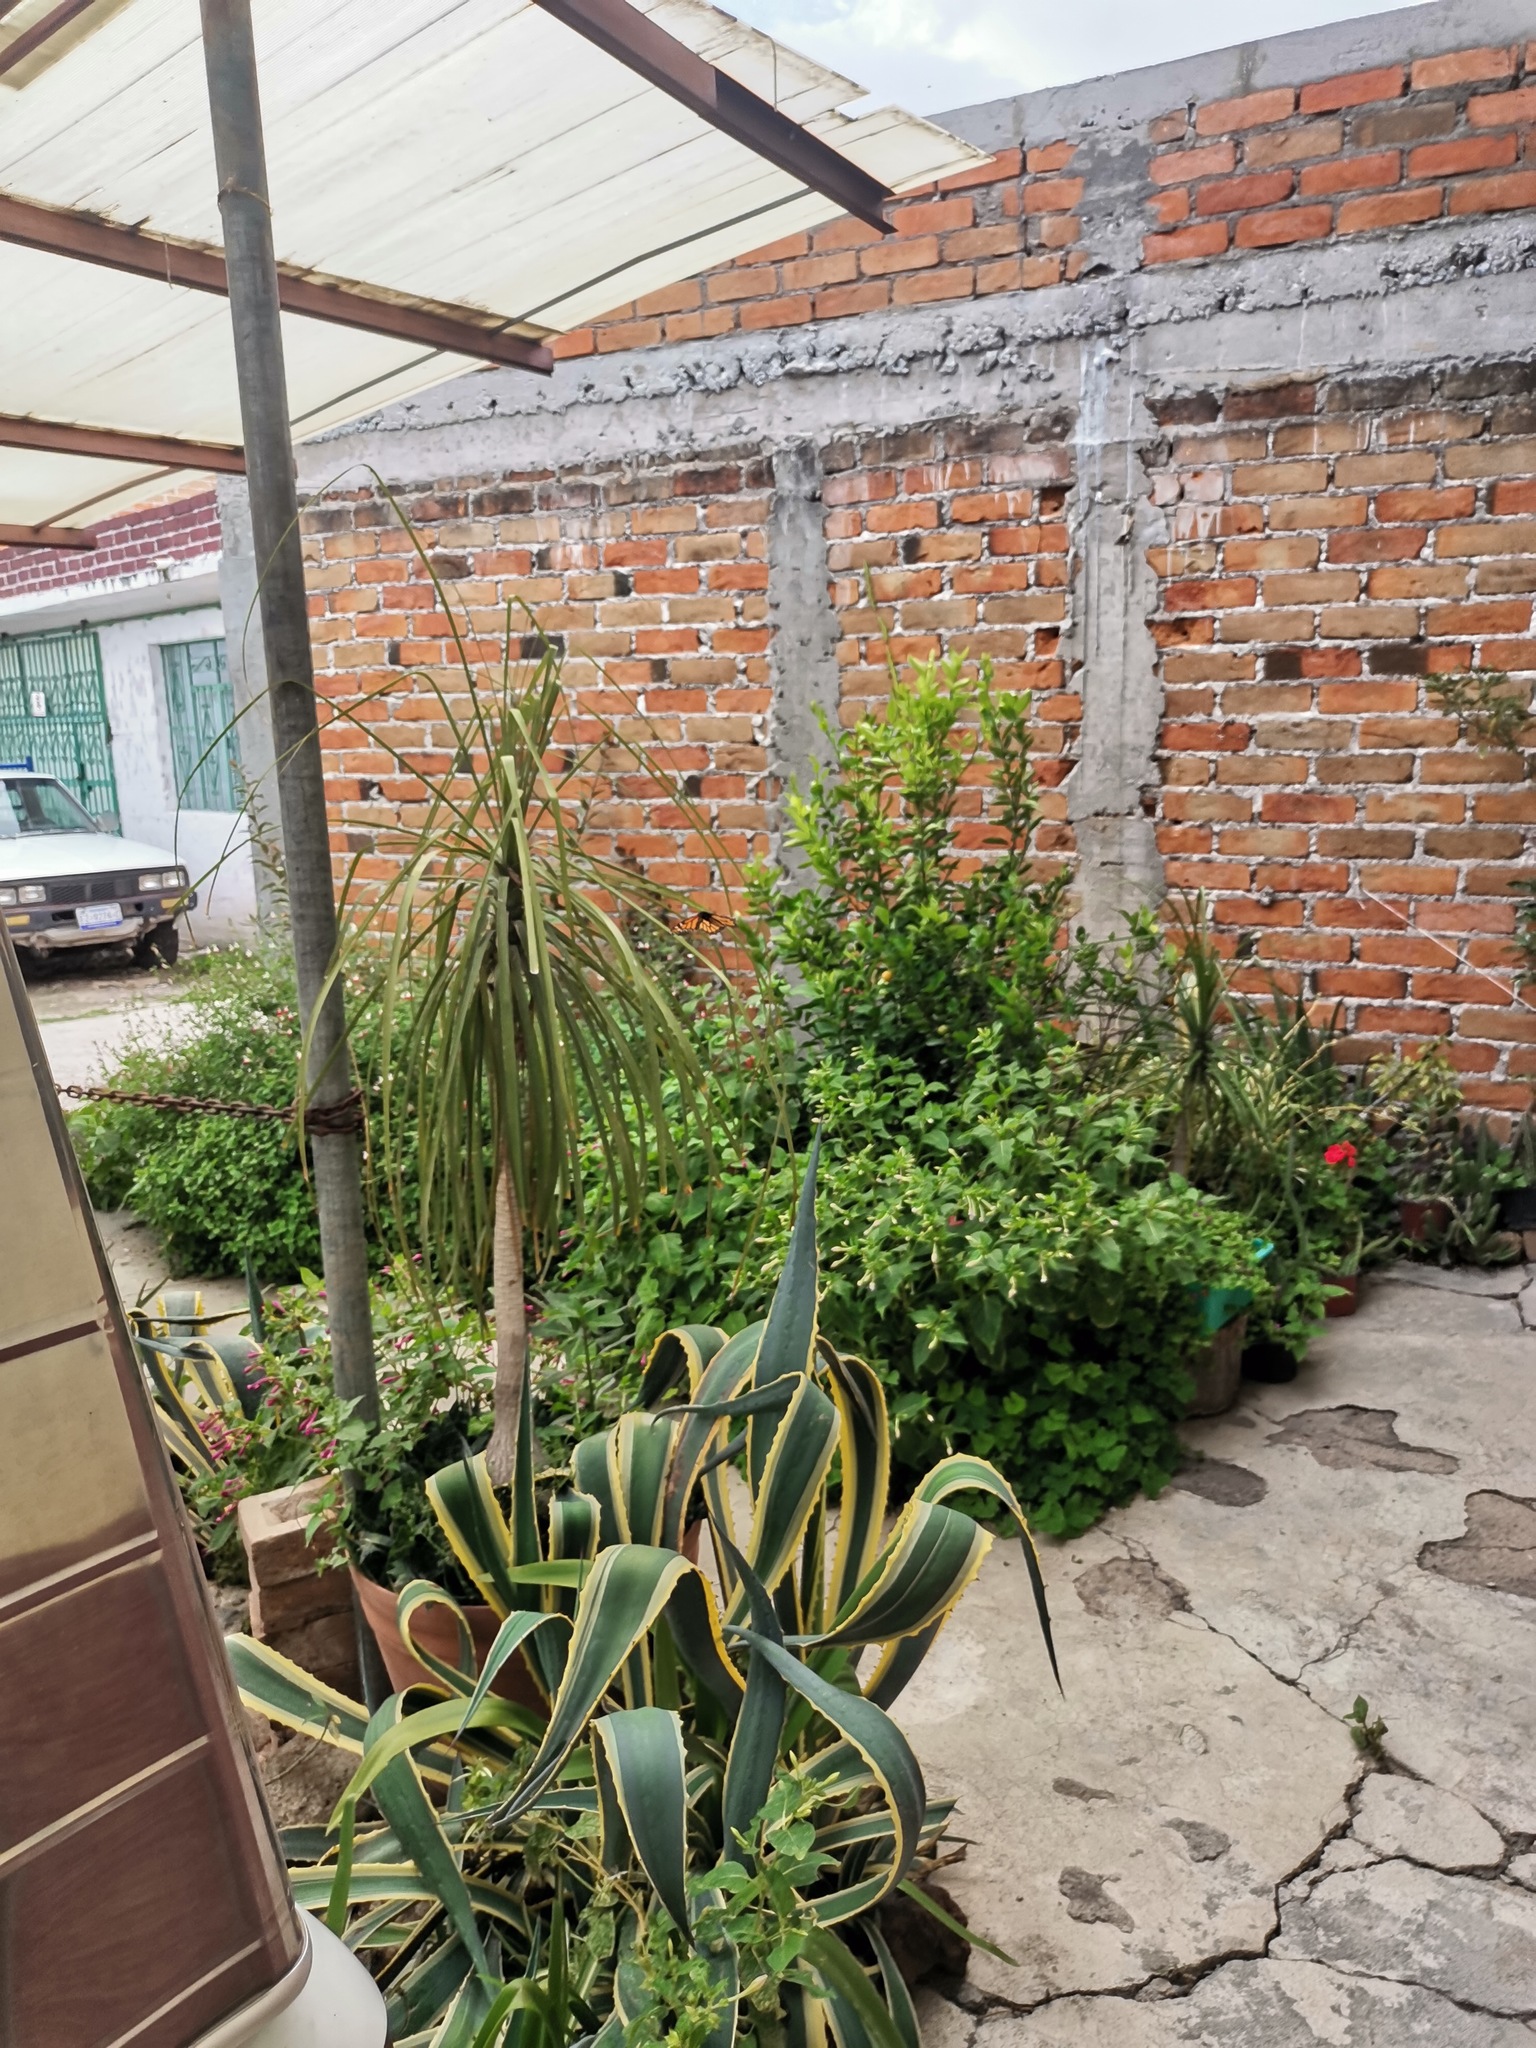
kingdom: Animalia
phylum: Arthropoda
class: Insecta
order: Lepidoptera
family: Nymphalidae
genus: Danaus
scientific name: Danaus plexippus
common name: Monarch
